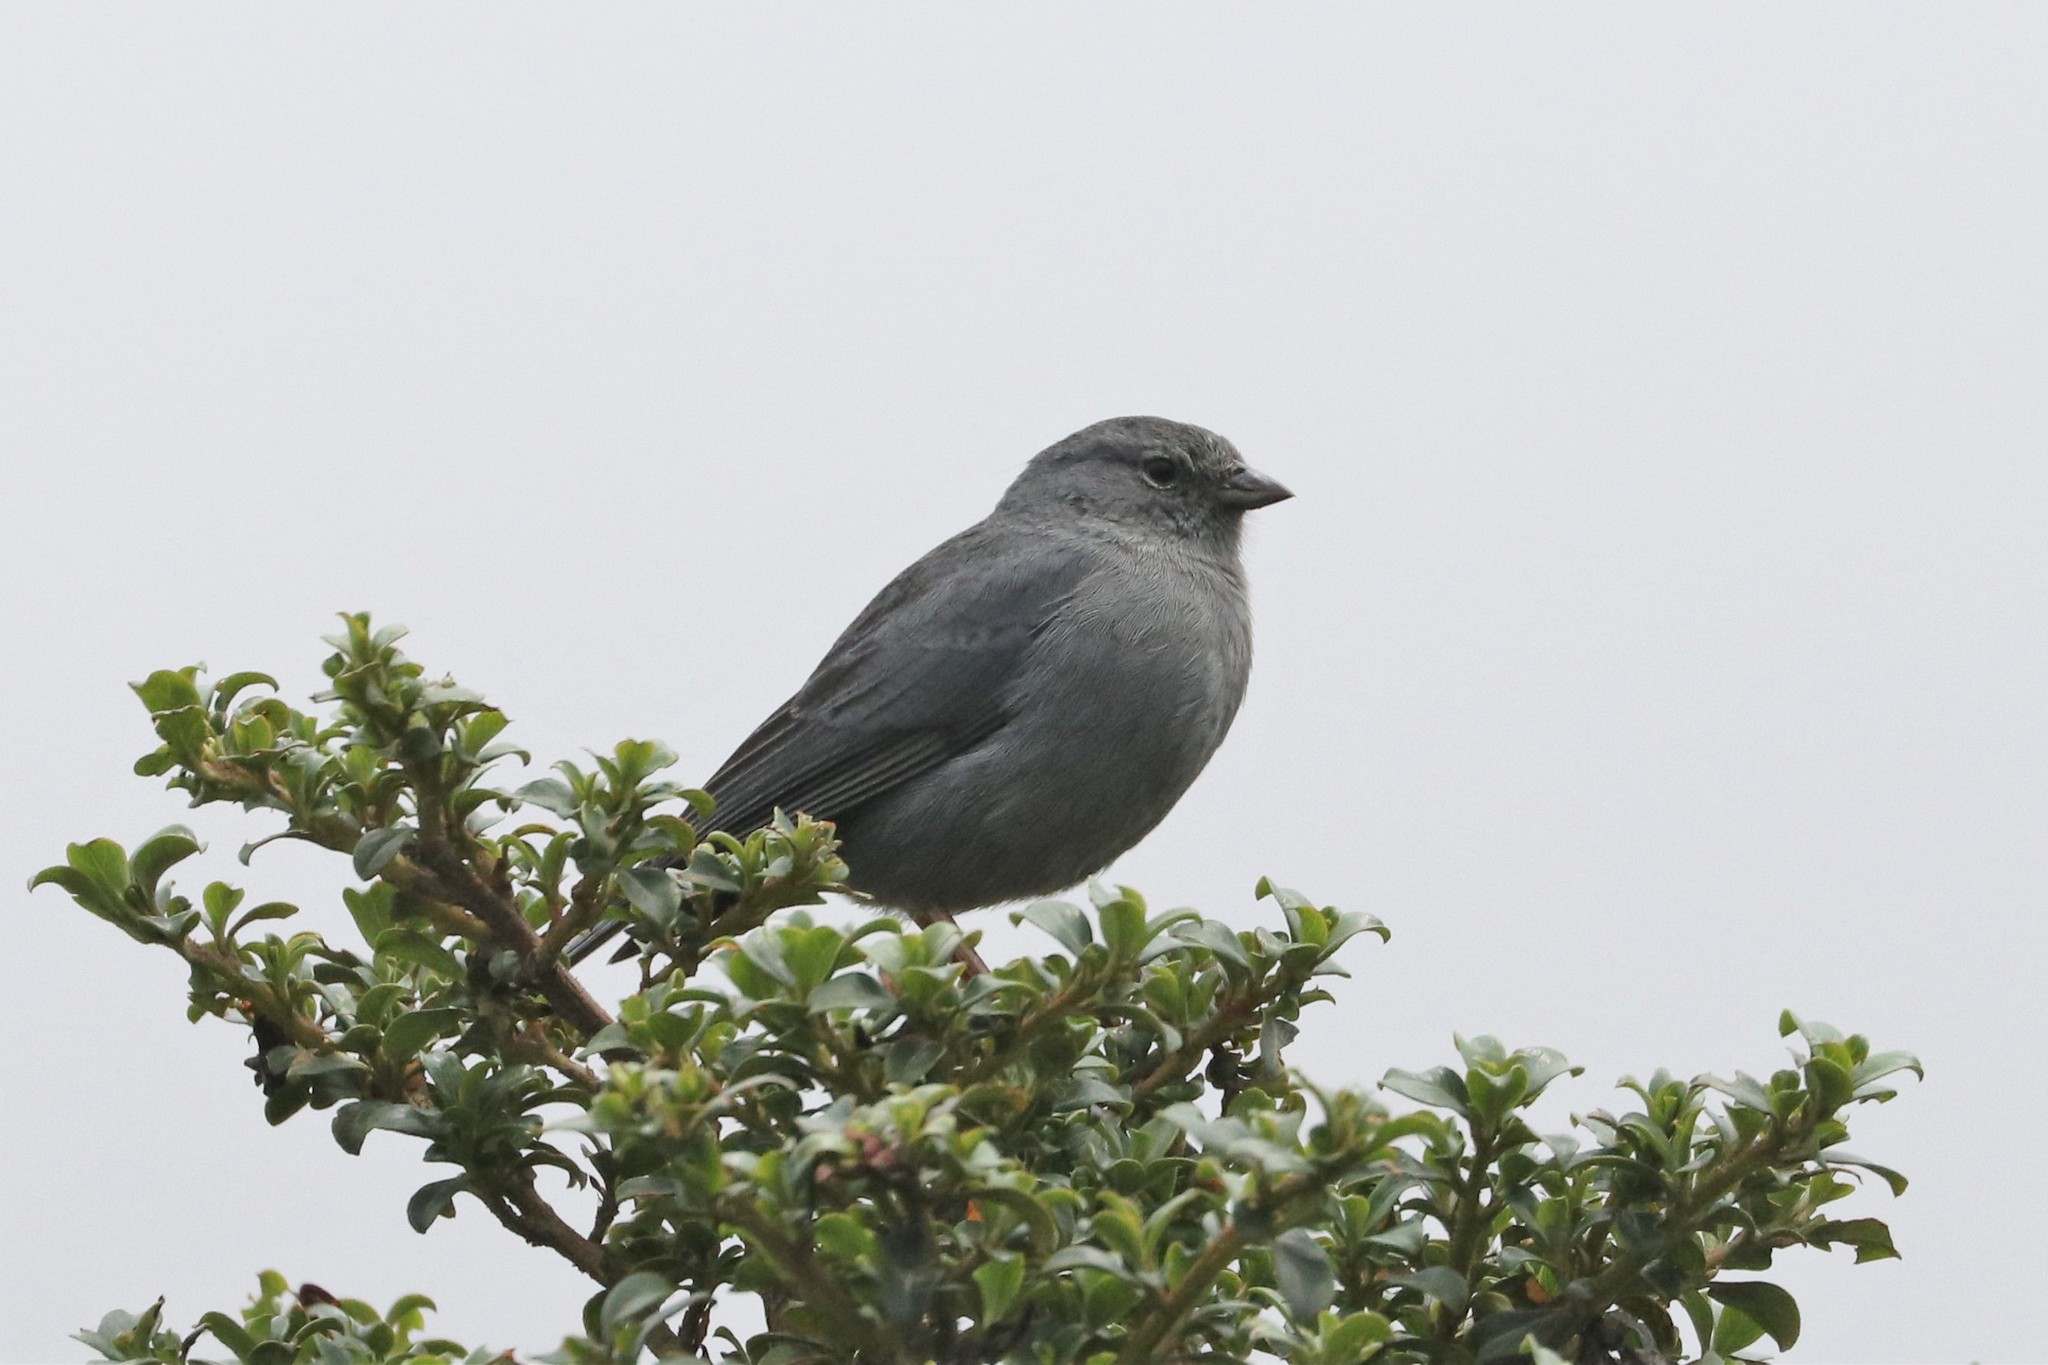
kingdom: Animalia
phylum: Chordata
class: Aves
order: Passeriformes
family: Thraupidae
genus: Geospizopsis
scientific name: Geospizopsis unicolor
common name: Plumbeous sierra-finch
